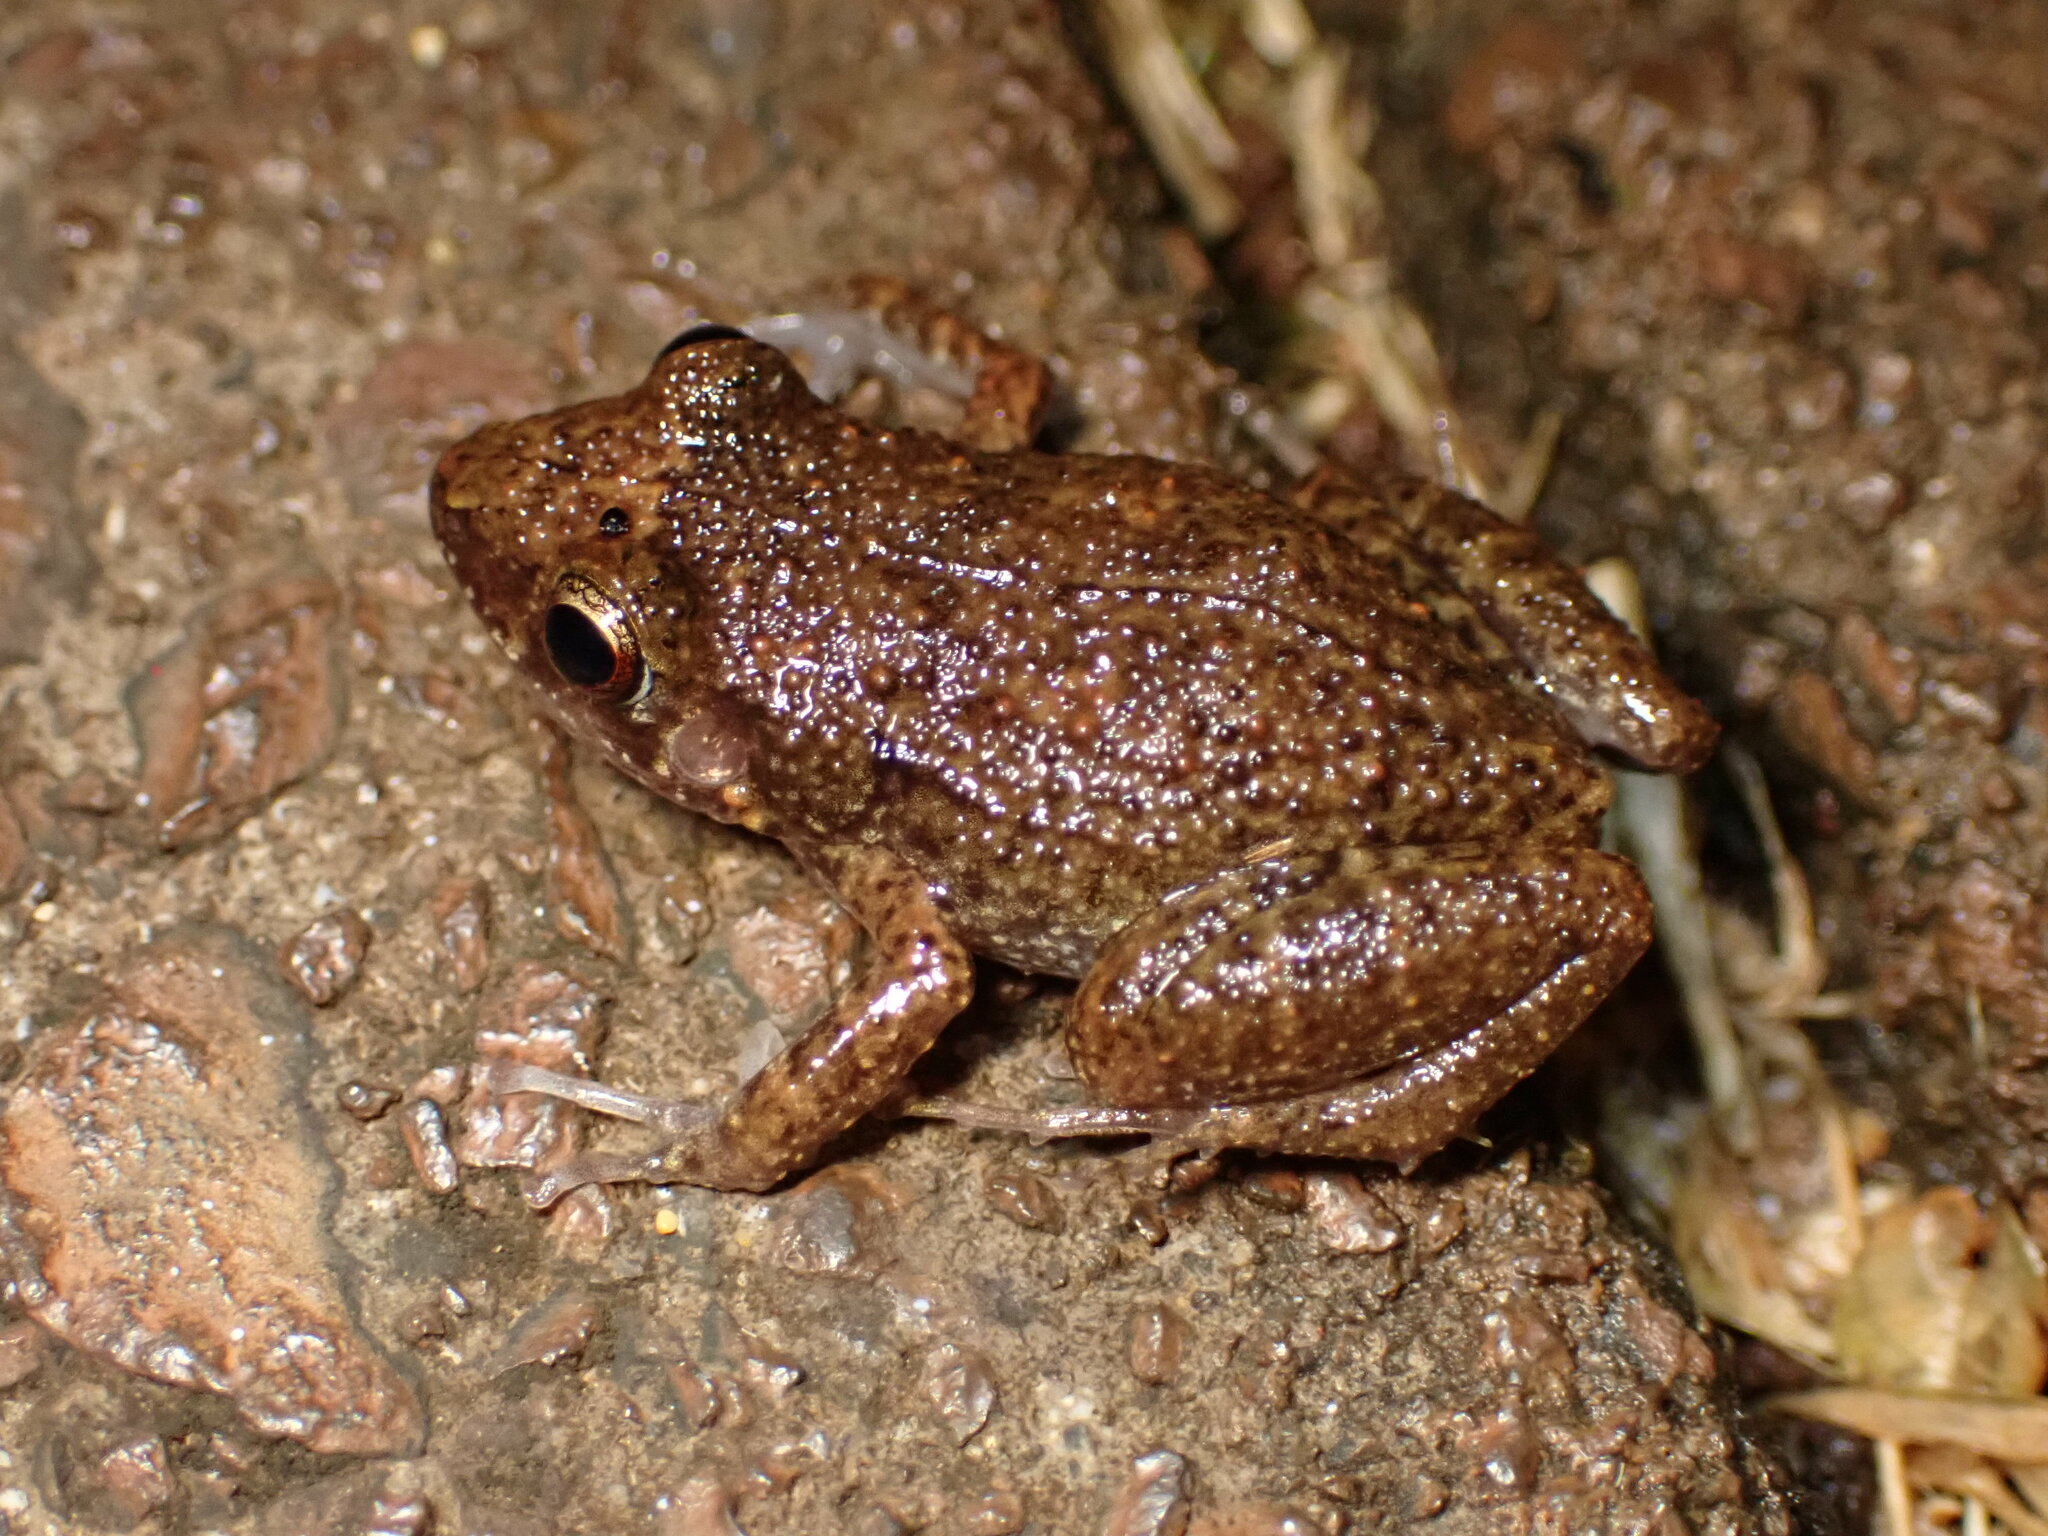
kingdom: Animalia
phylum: Chordata
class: Amphibia
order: Anura
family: Eleutherodactylidae
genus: Eleutherodactylus
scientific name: Eleutherodactylus planirostris
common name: Greenhouse frog
